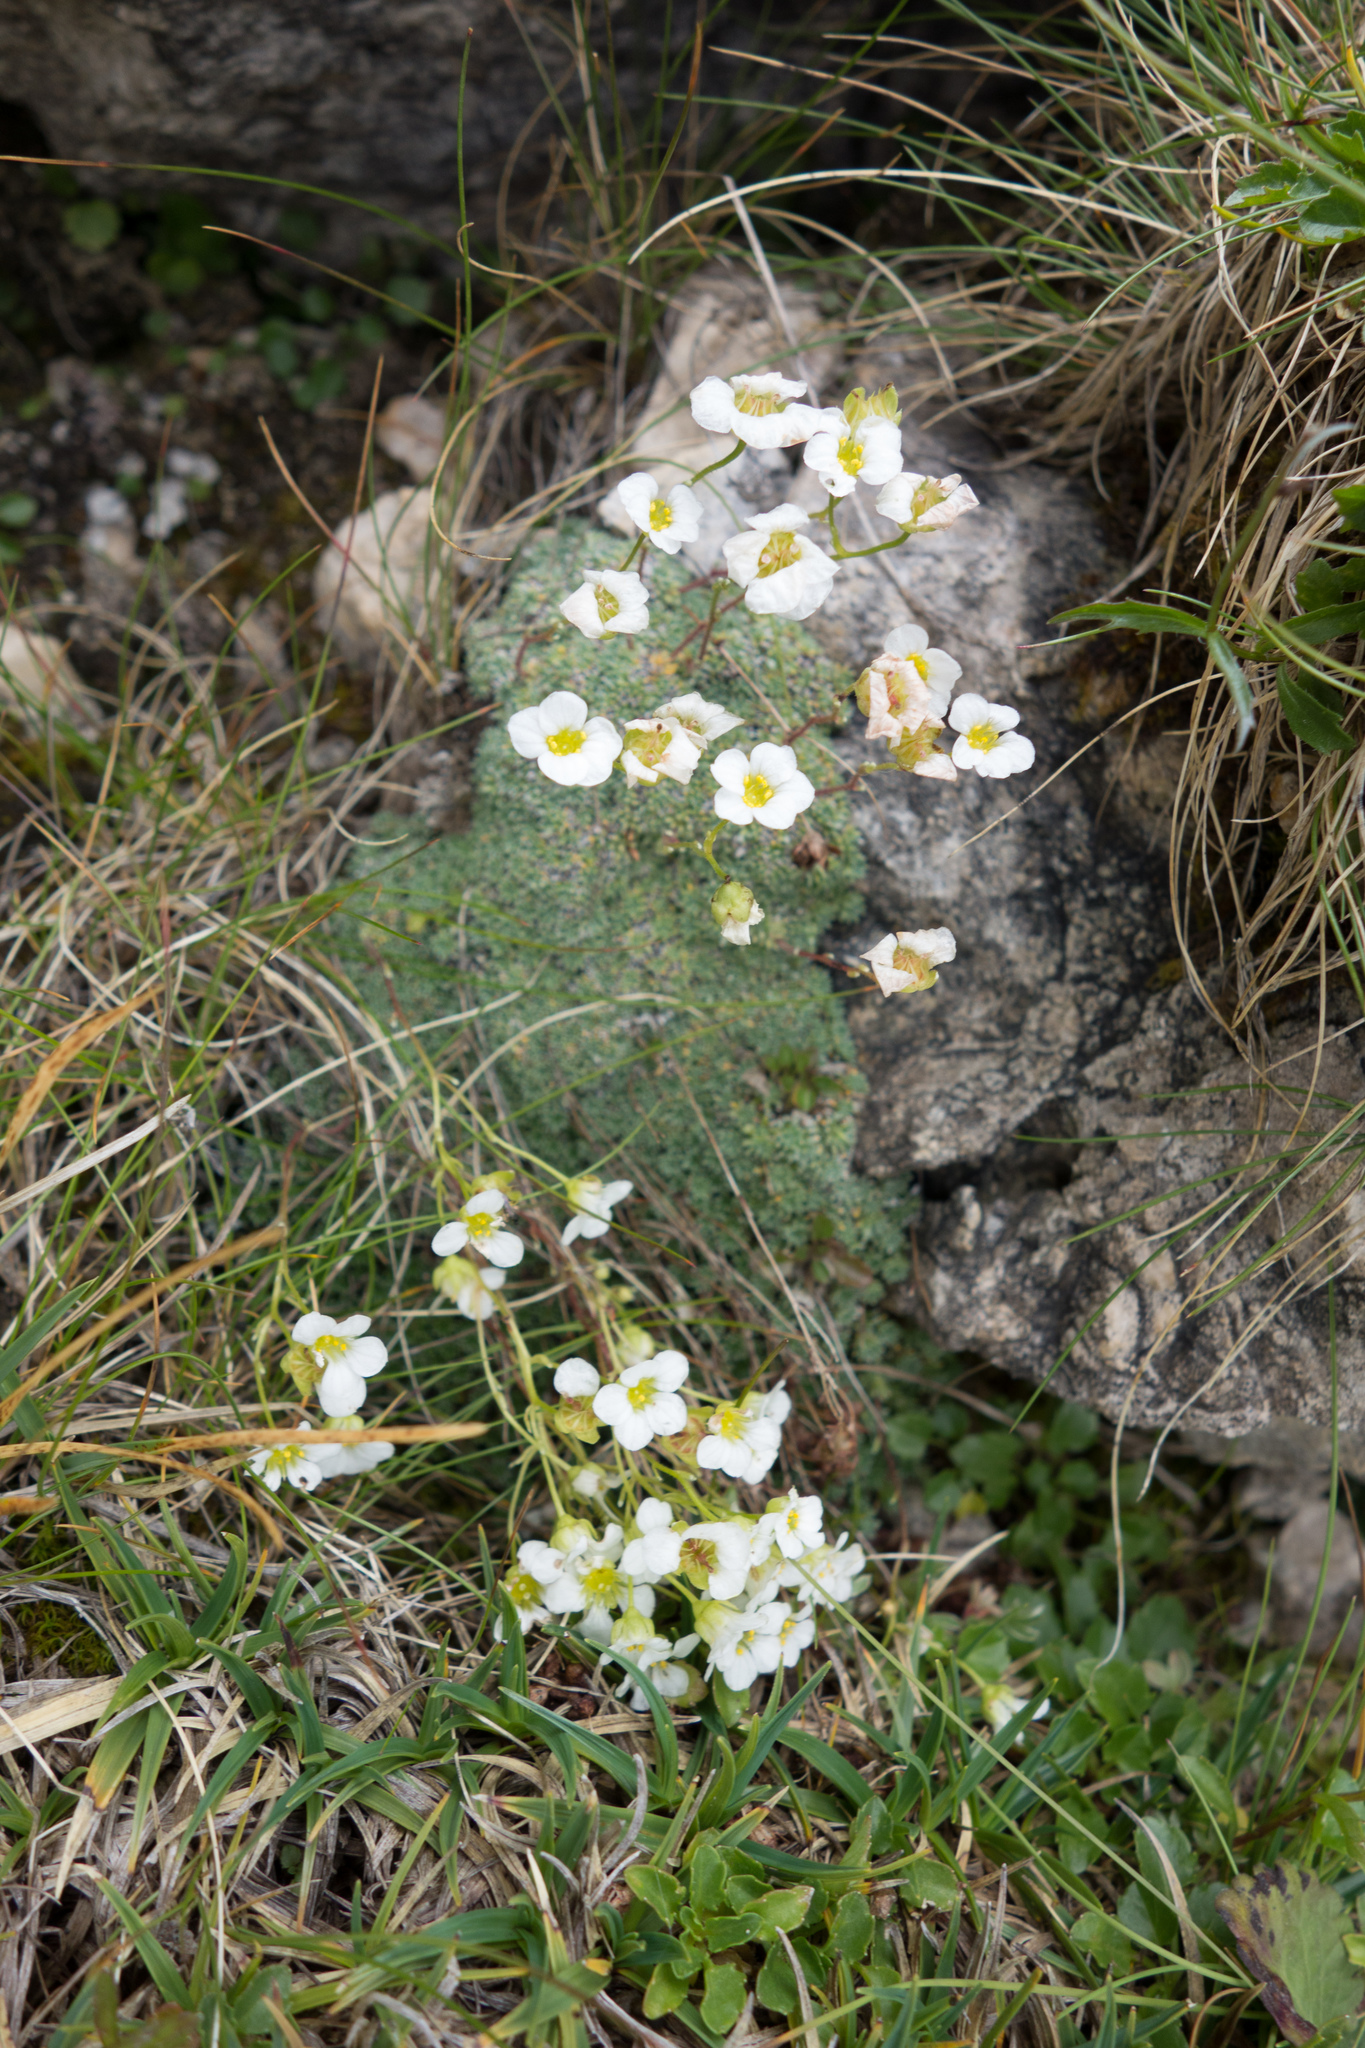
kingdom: Plantae
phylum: Tracheophyta
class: Magnoliopsida
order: Saxifragales
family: Saxifragaceae
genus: Saxifraga
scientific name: Saxifraga squarrosa
